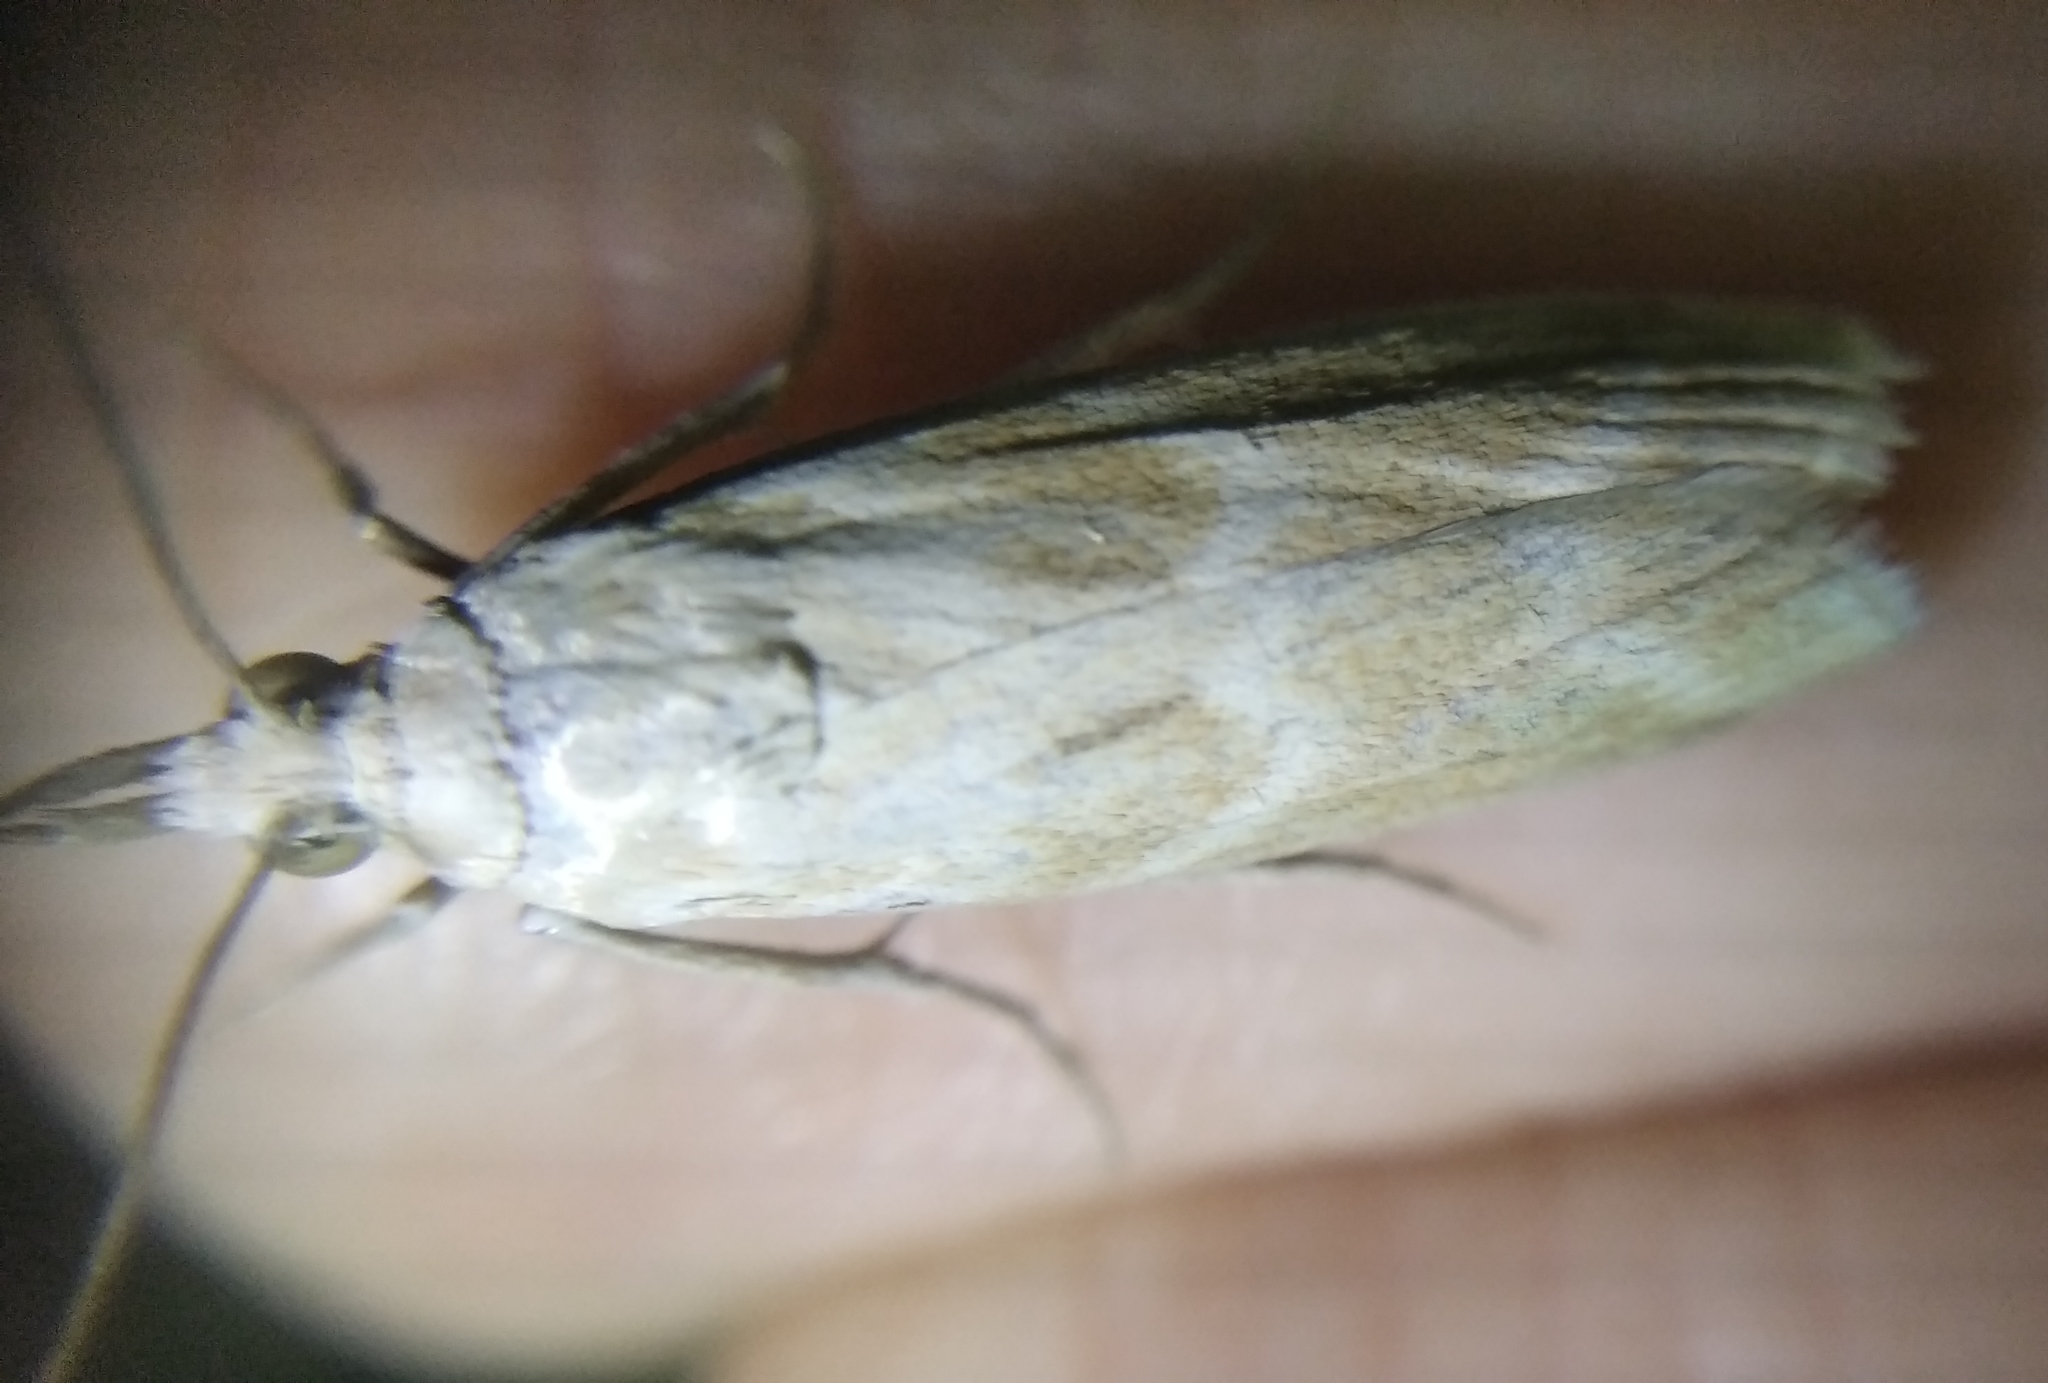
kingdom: Animalia
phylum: Arthropoda
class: Insecta
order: Lepidoptera
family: Pyralidae
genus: Bradyrrhoa
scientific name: Bradyrrhoa gilveolella
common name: Pyralid moth
